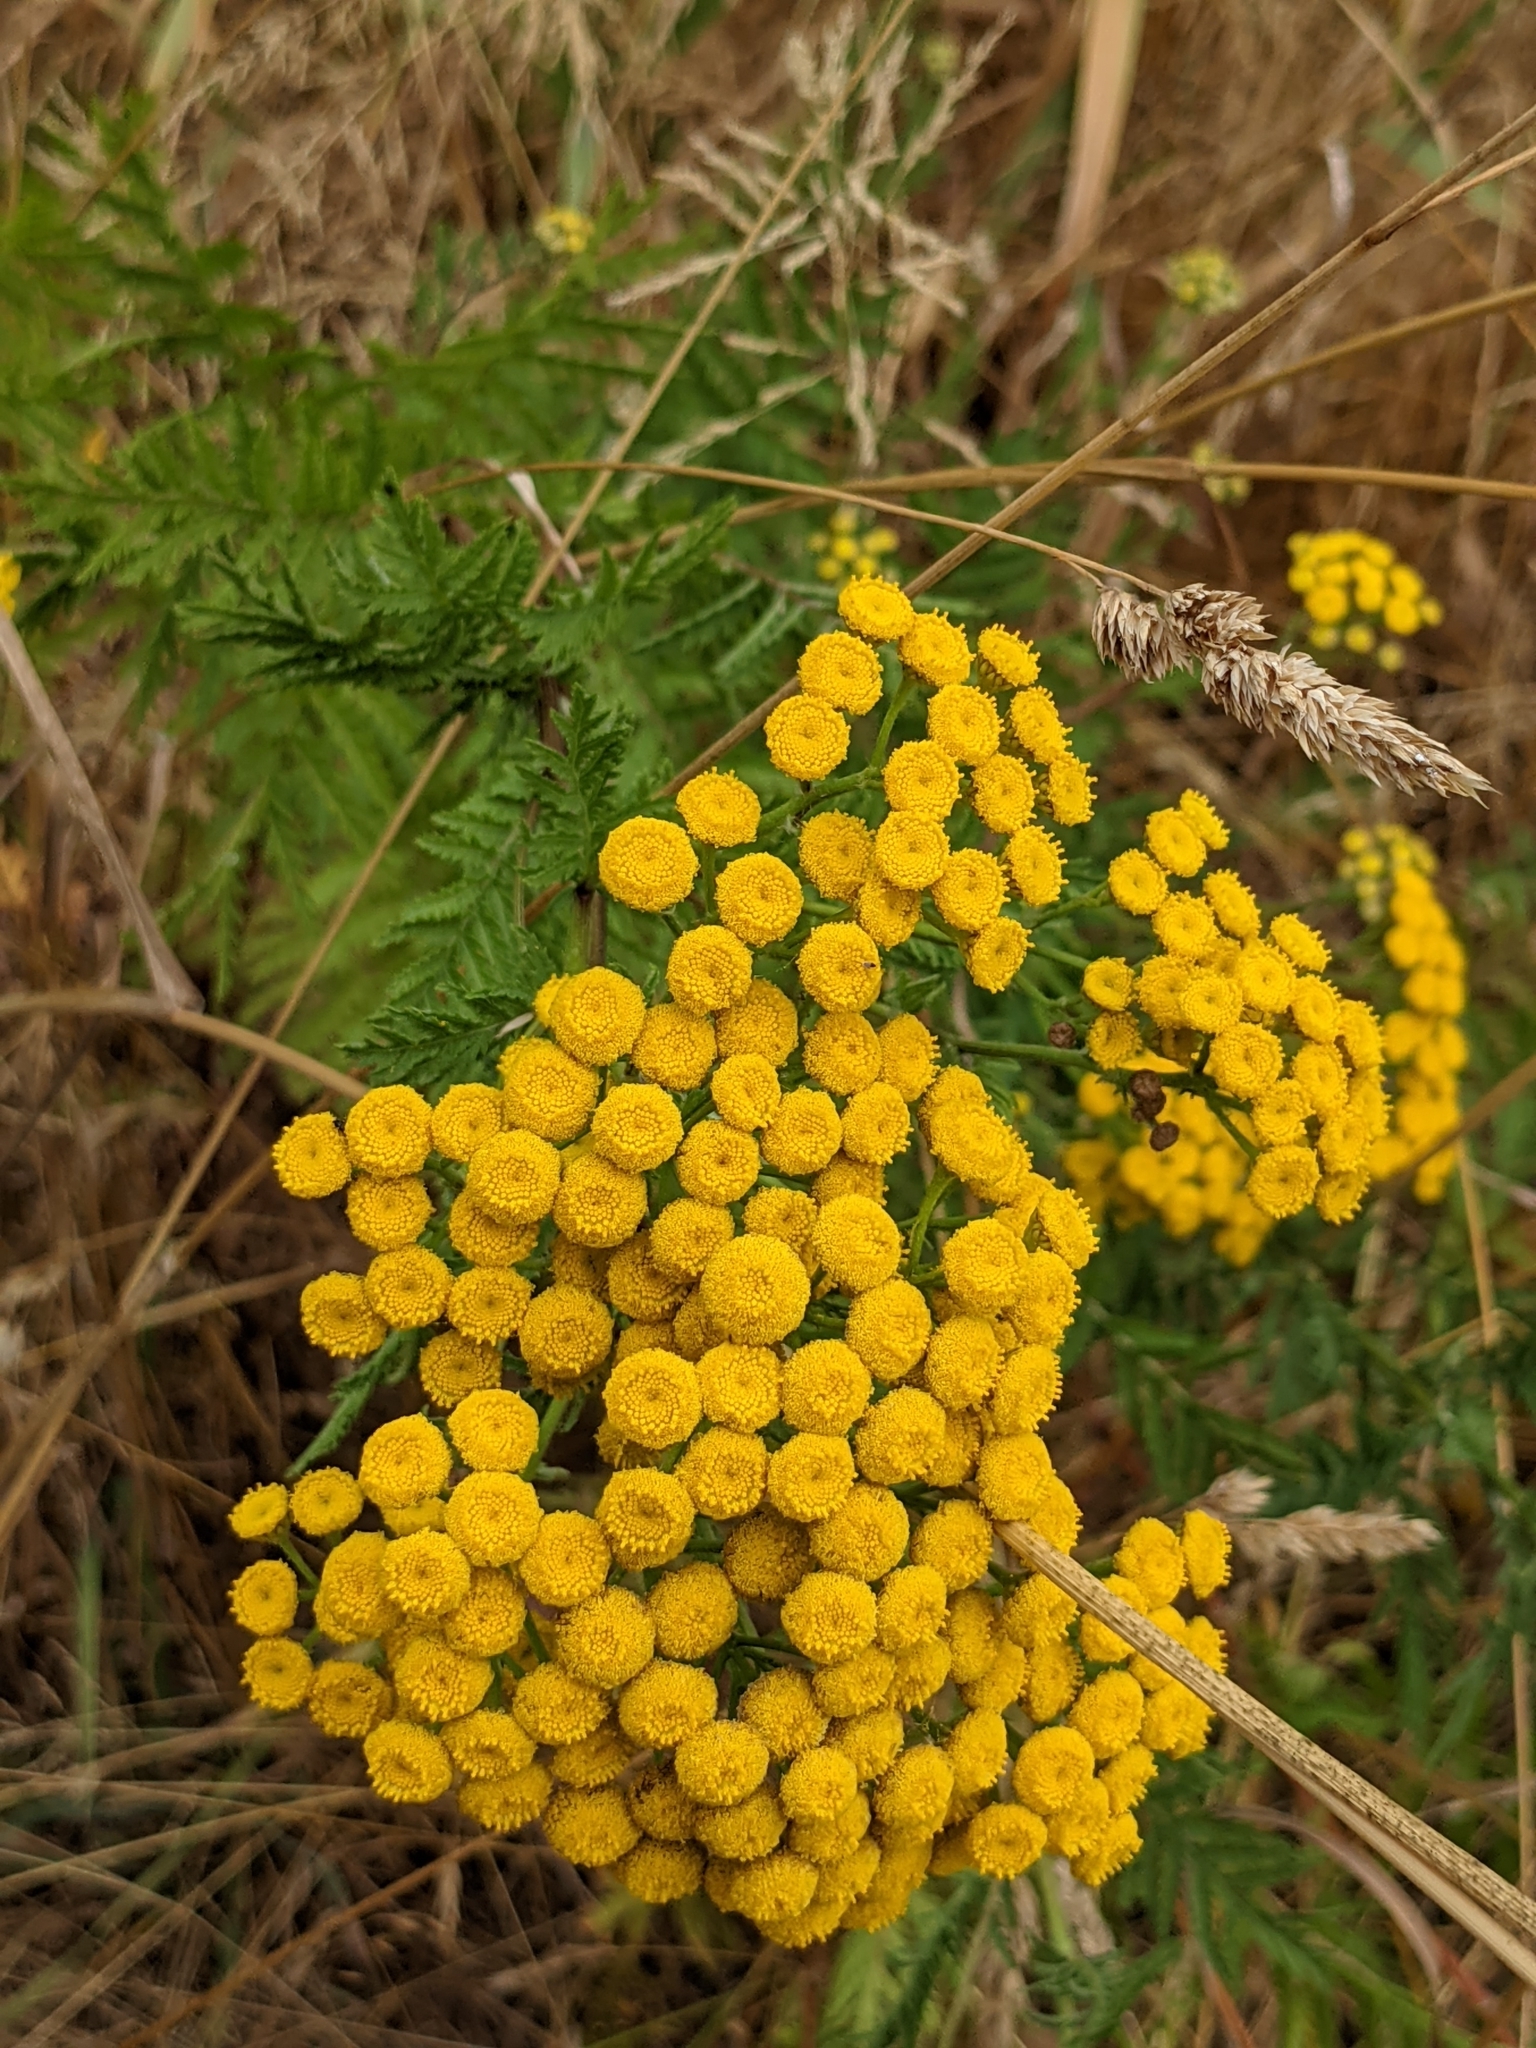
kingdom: Plantae
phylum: Tracheophyta
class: Magnoliopsida
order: Asterales
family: Asteraceae
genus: Tanacetum
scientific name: Tanacetum vulgare
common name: Common tansy
